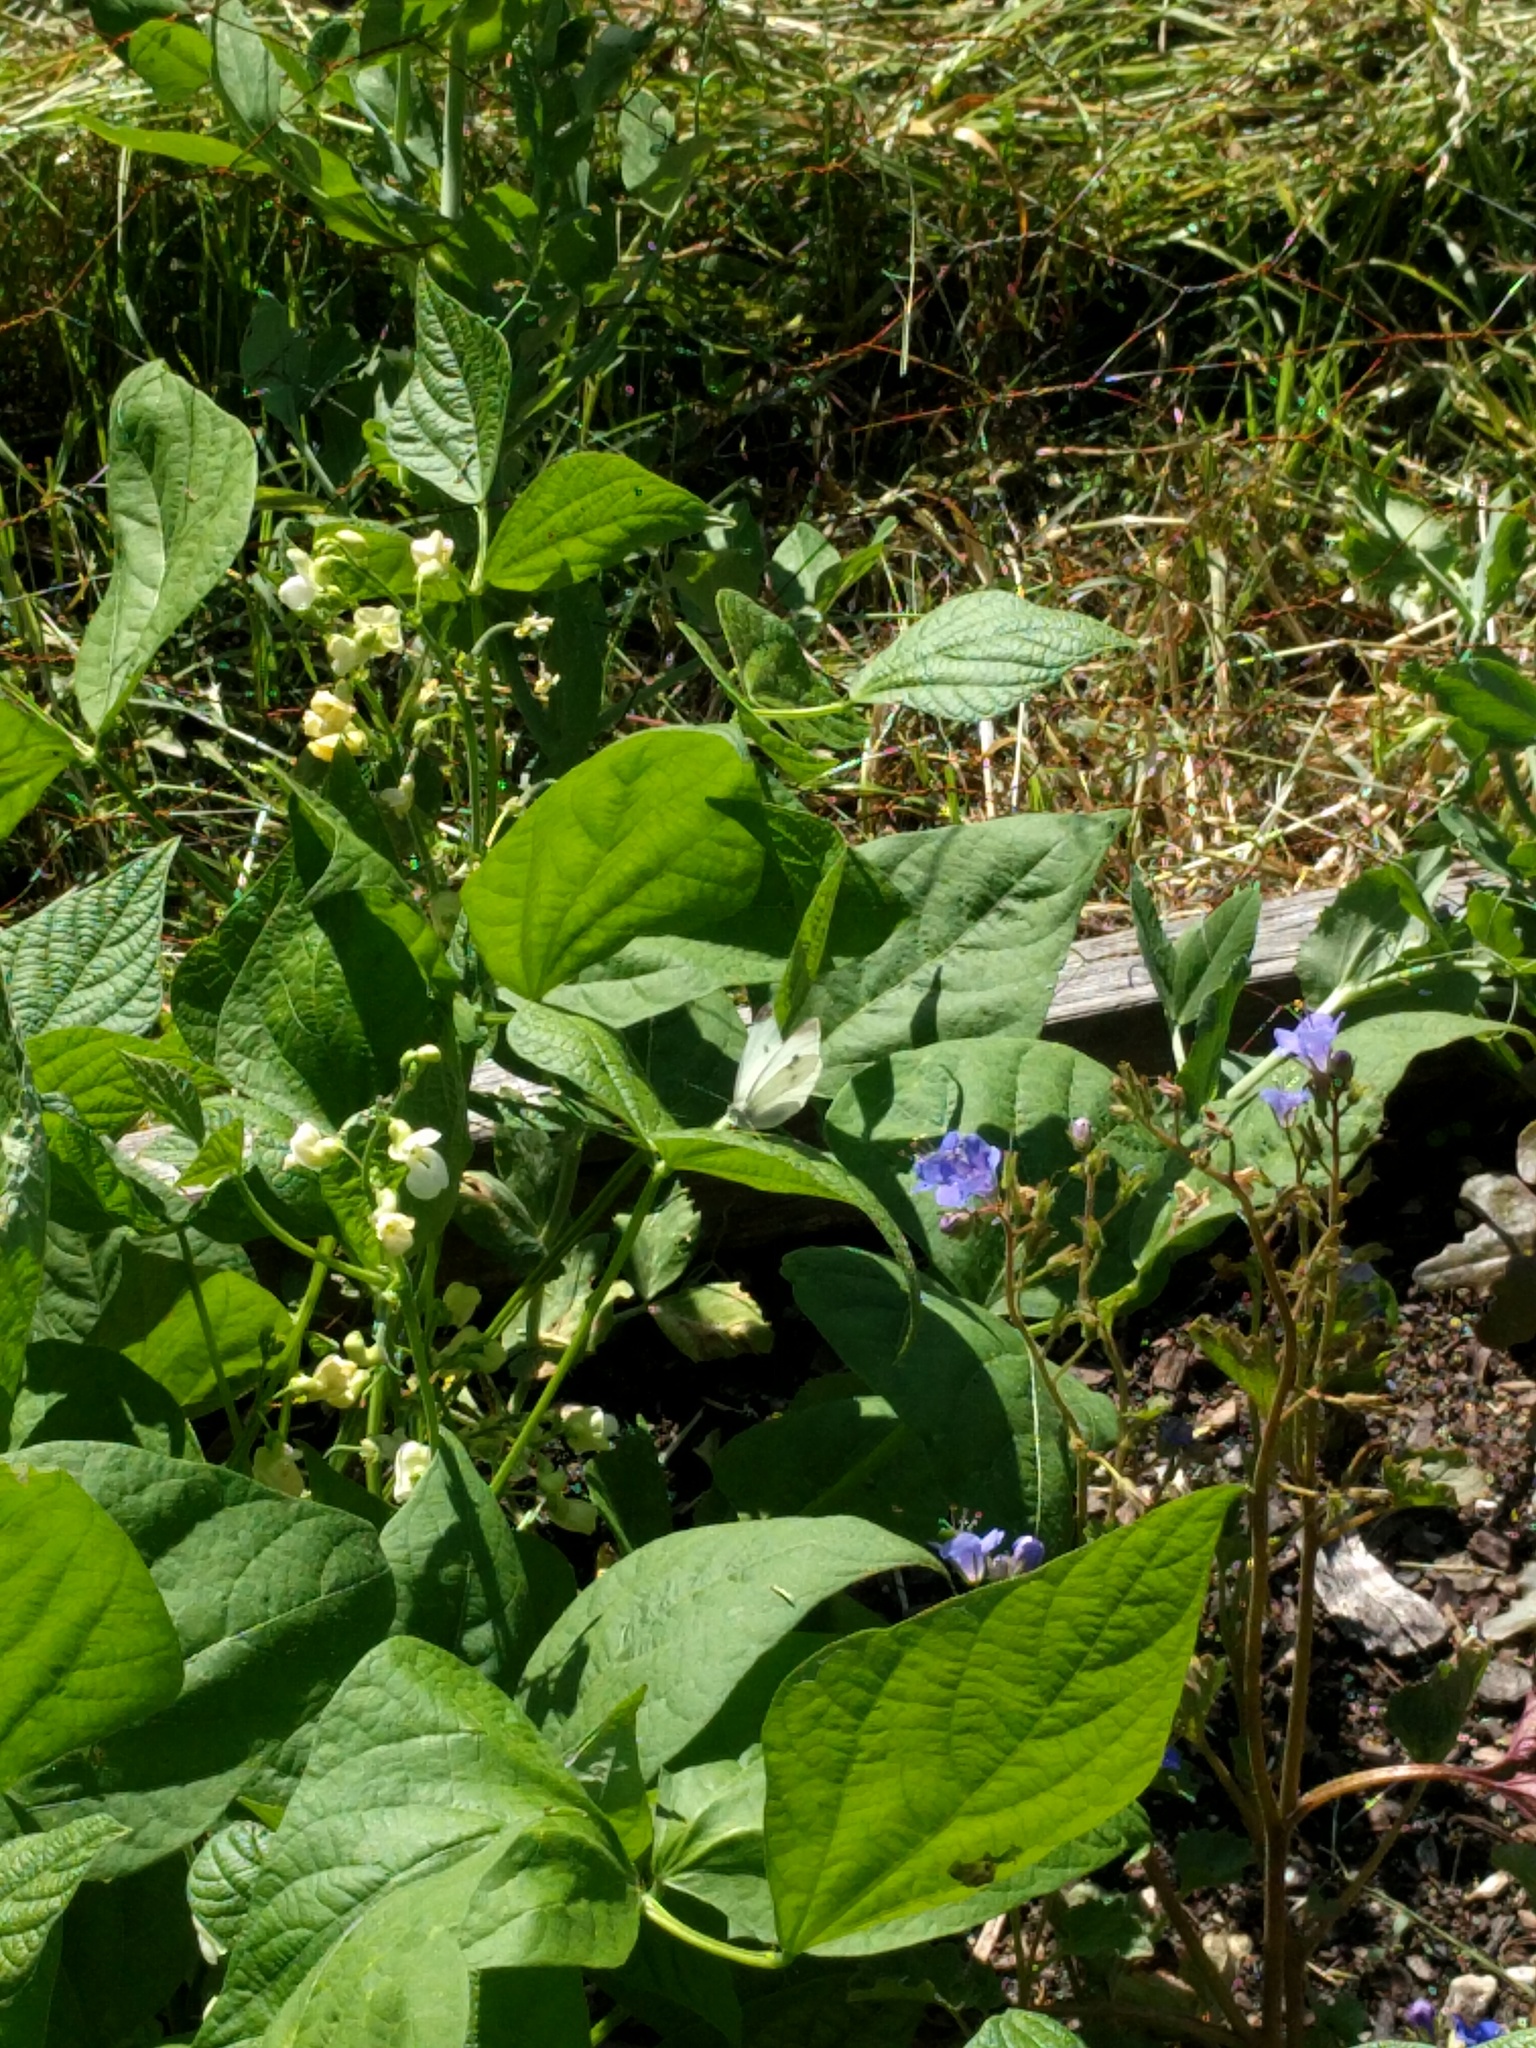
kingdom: Animalia
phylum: Arthropoda
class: Insecta
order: Lepidoptera
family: Pieridae
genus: Pieris
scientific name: Pieris rapae
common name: Small white
